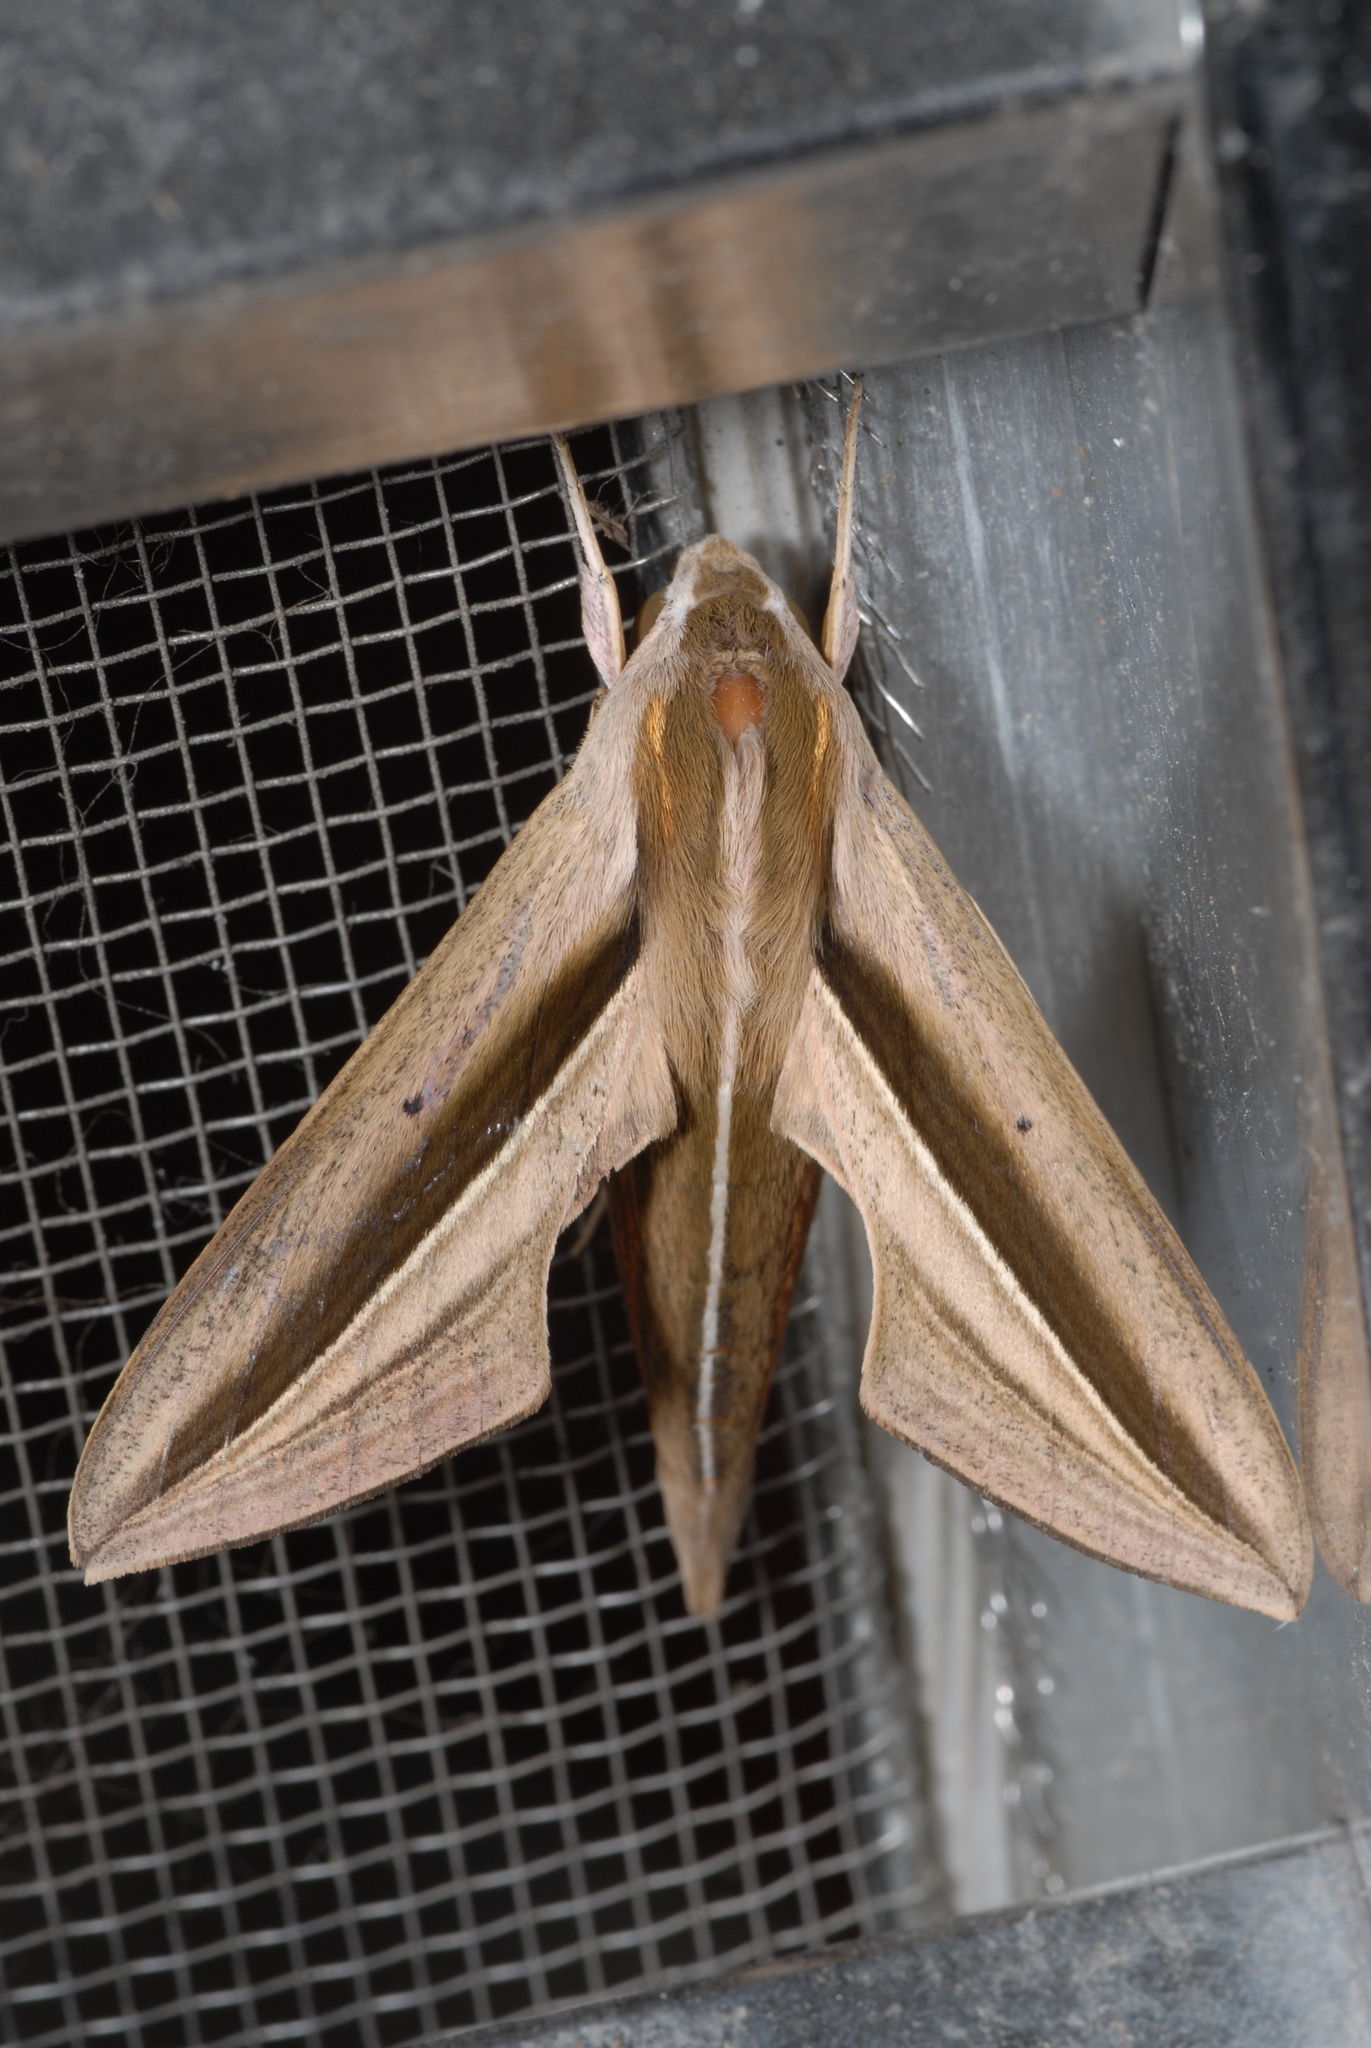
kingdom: Animalia
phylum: Arthropoda
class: Insecta
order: Lepidoptera
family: Sphingidae
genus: Theretra
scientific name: Theretra silhetensis
